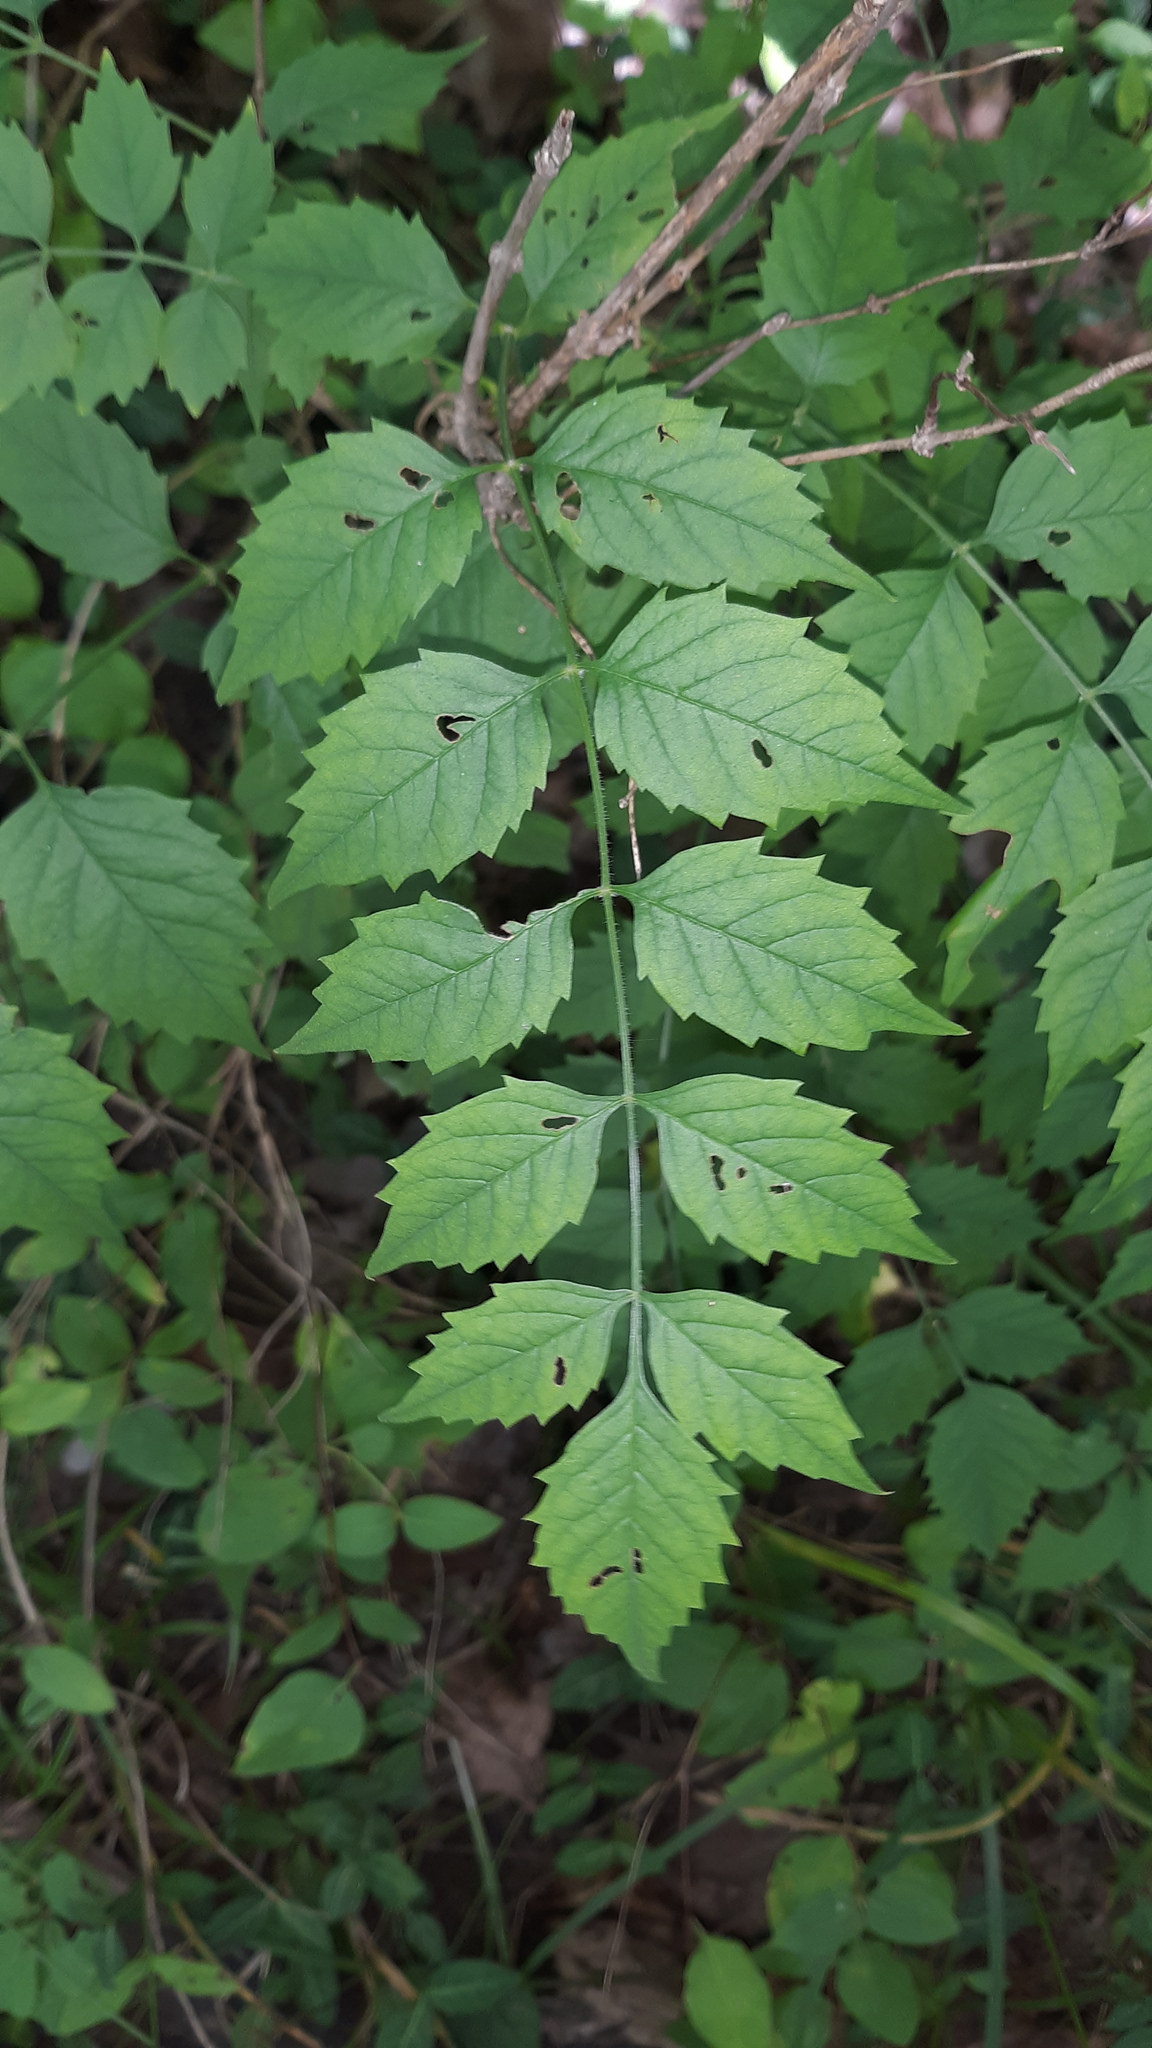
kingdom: Plantae
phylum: Tracheophyta
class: Magnoliopsida
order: Lamiales
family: Bignoniaceae
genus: Campsis
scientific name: Campsis radicans
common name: Trumpet-creeper
